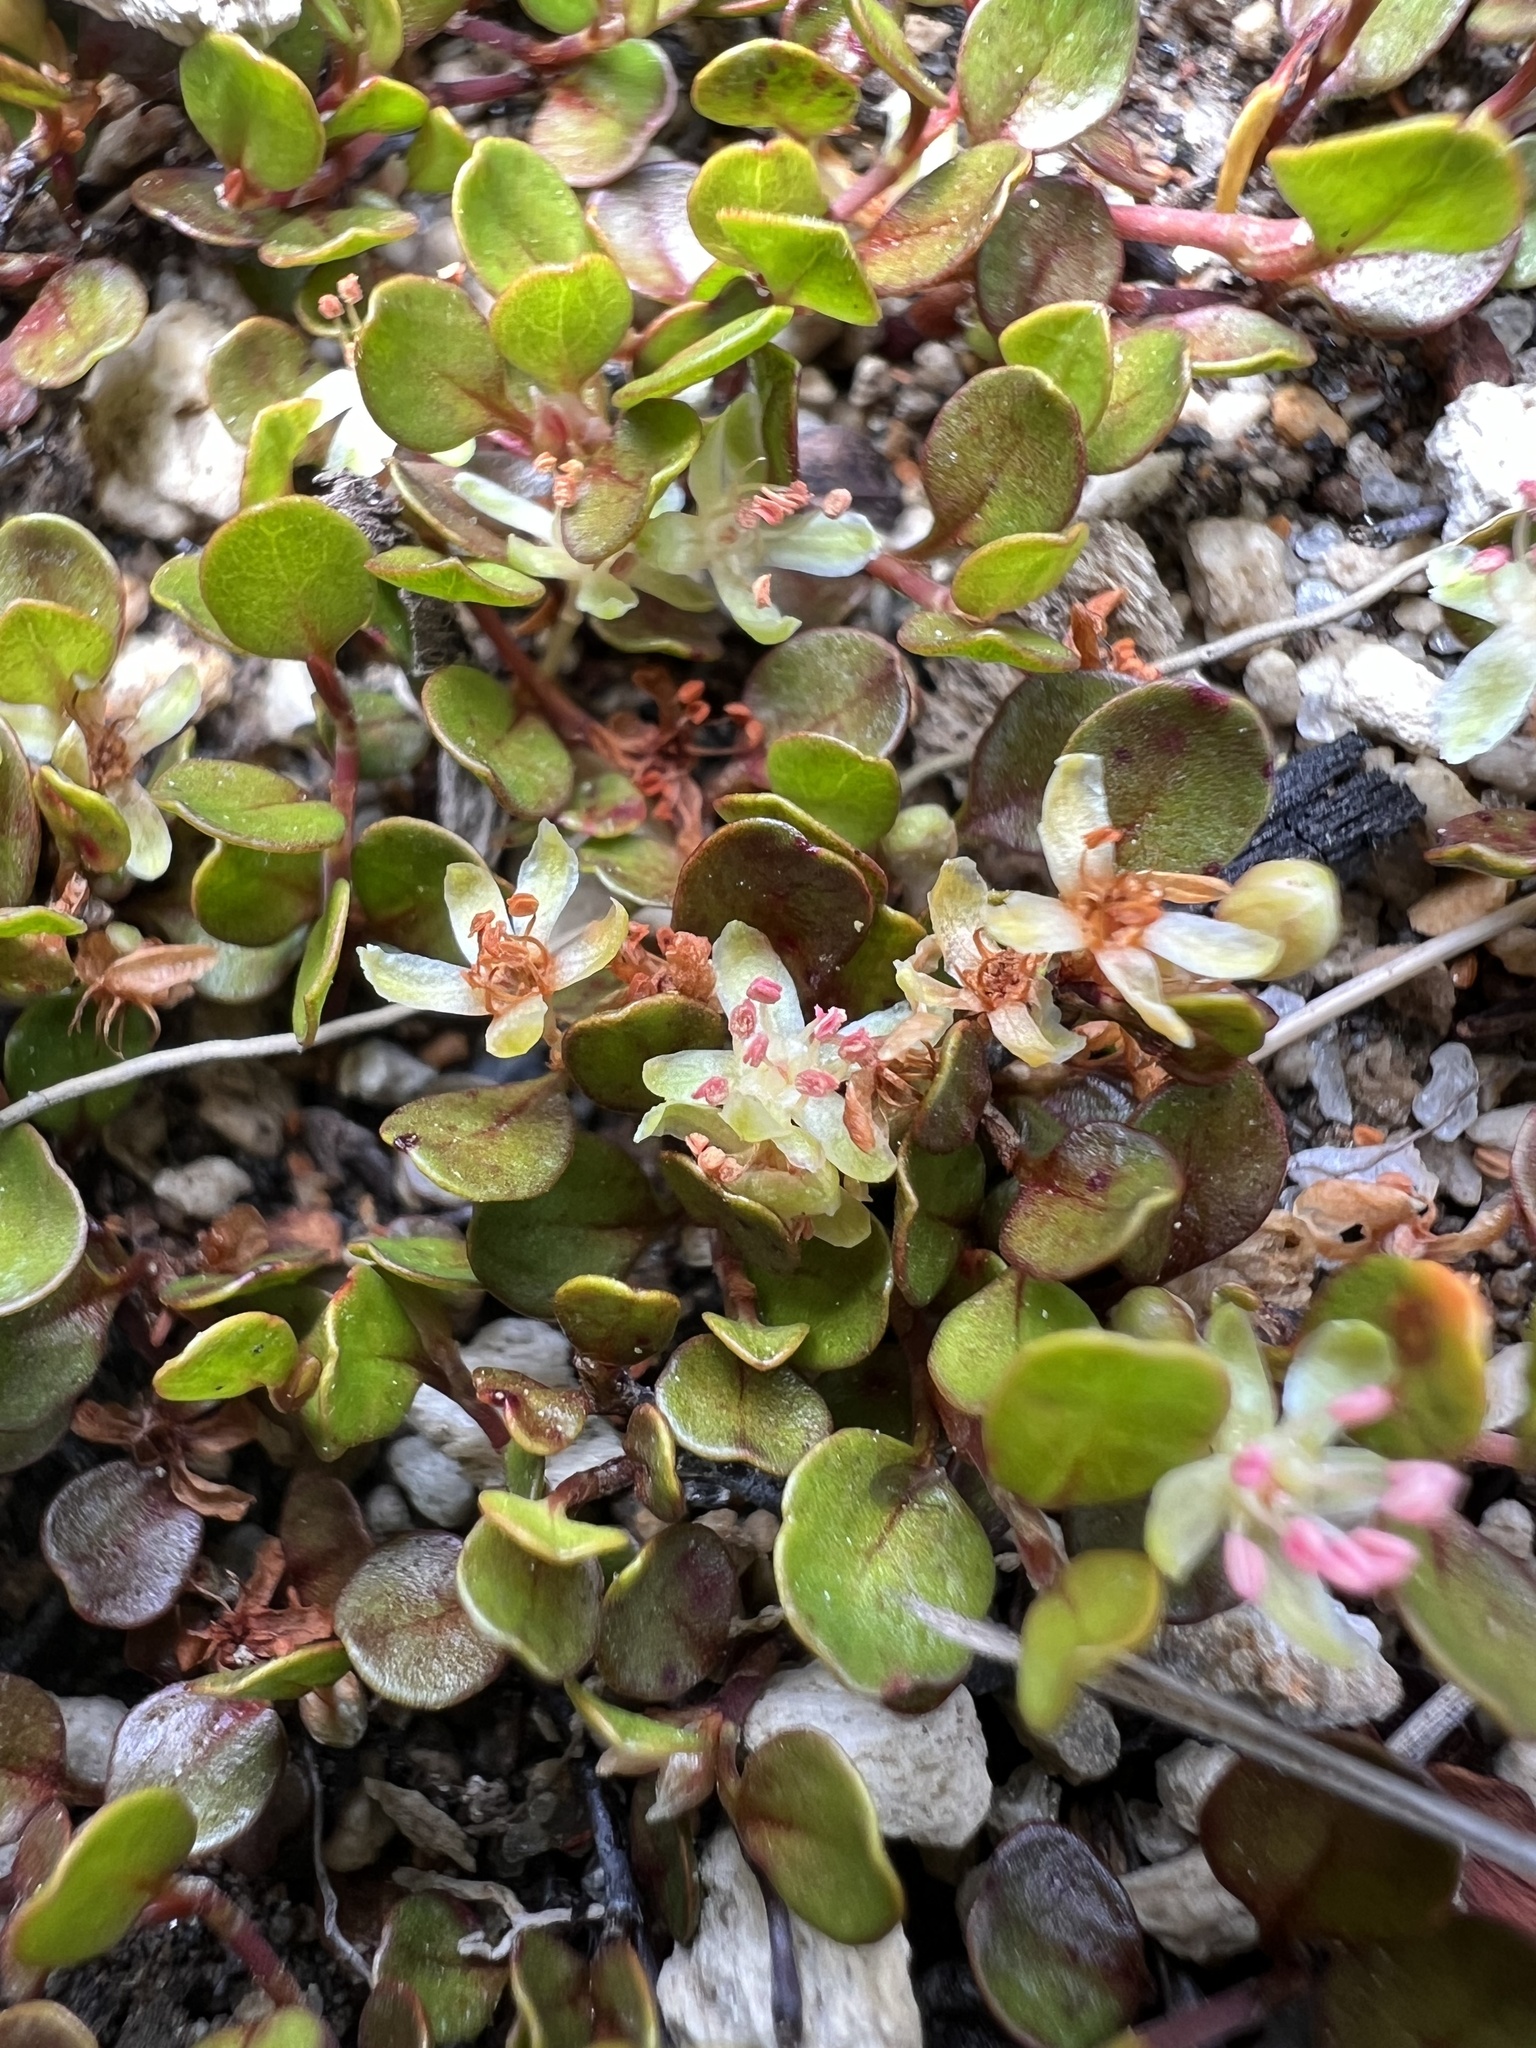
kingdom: Plantae
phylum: Tracheophyta
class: Magnoliopsida
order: Caryophyllales
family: Polygonaceae
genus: Muehlenbeckia
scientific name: Muehlenbeckia axillaris
